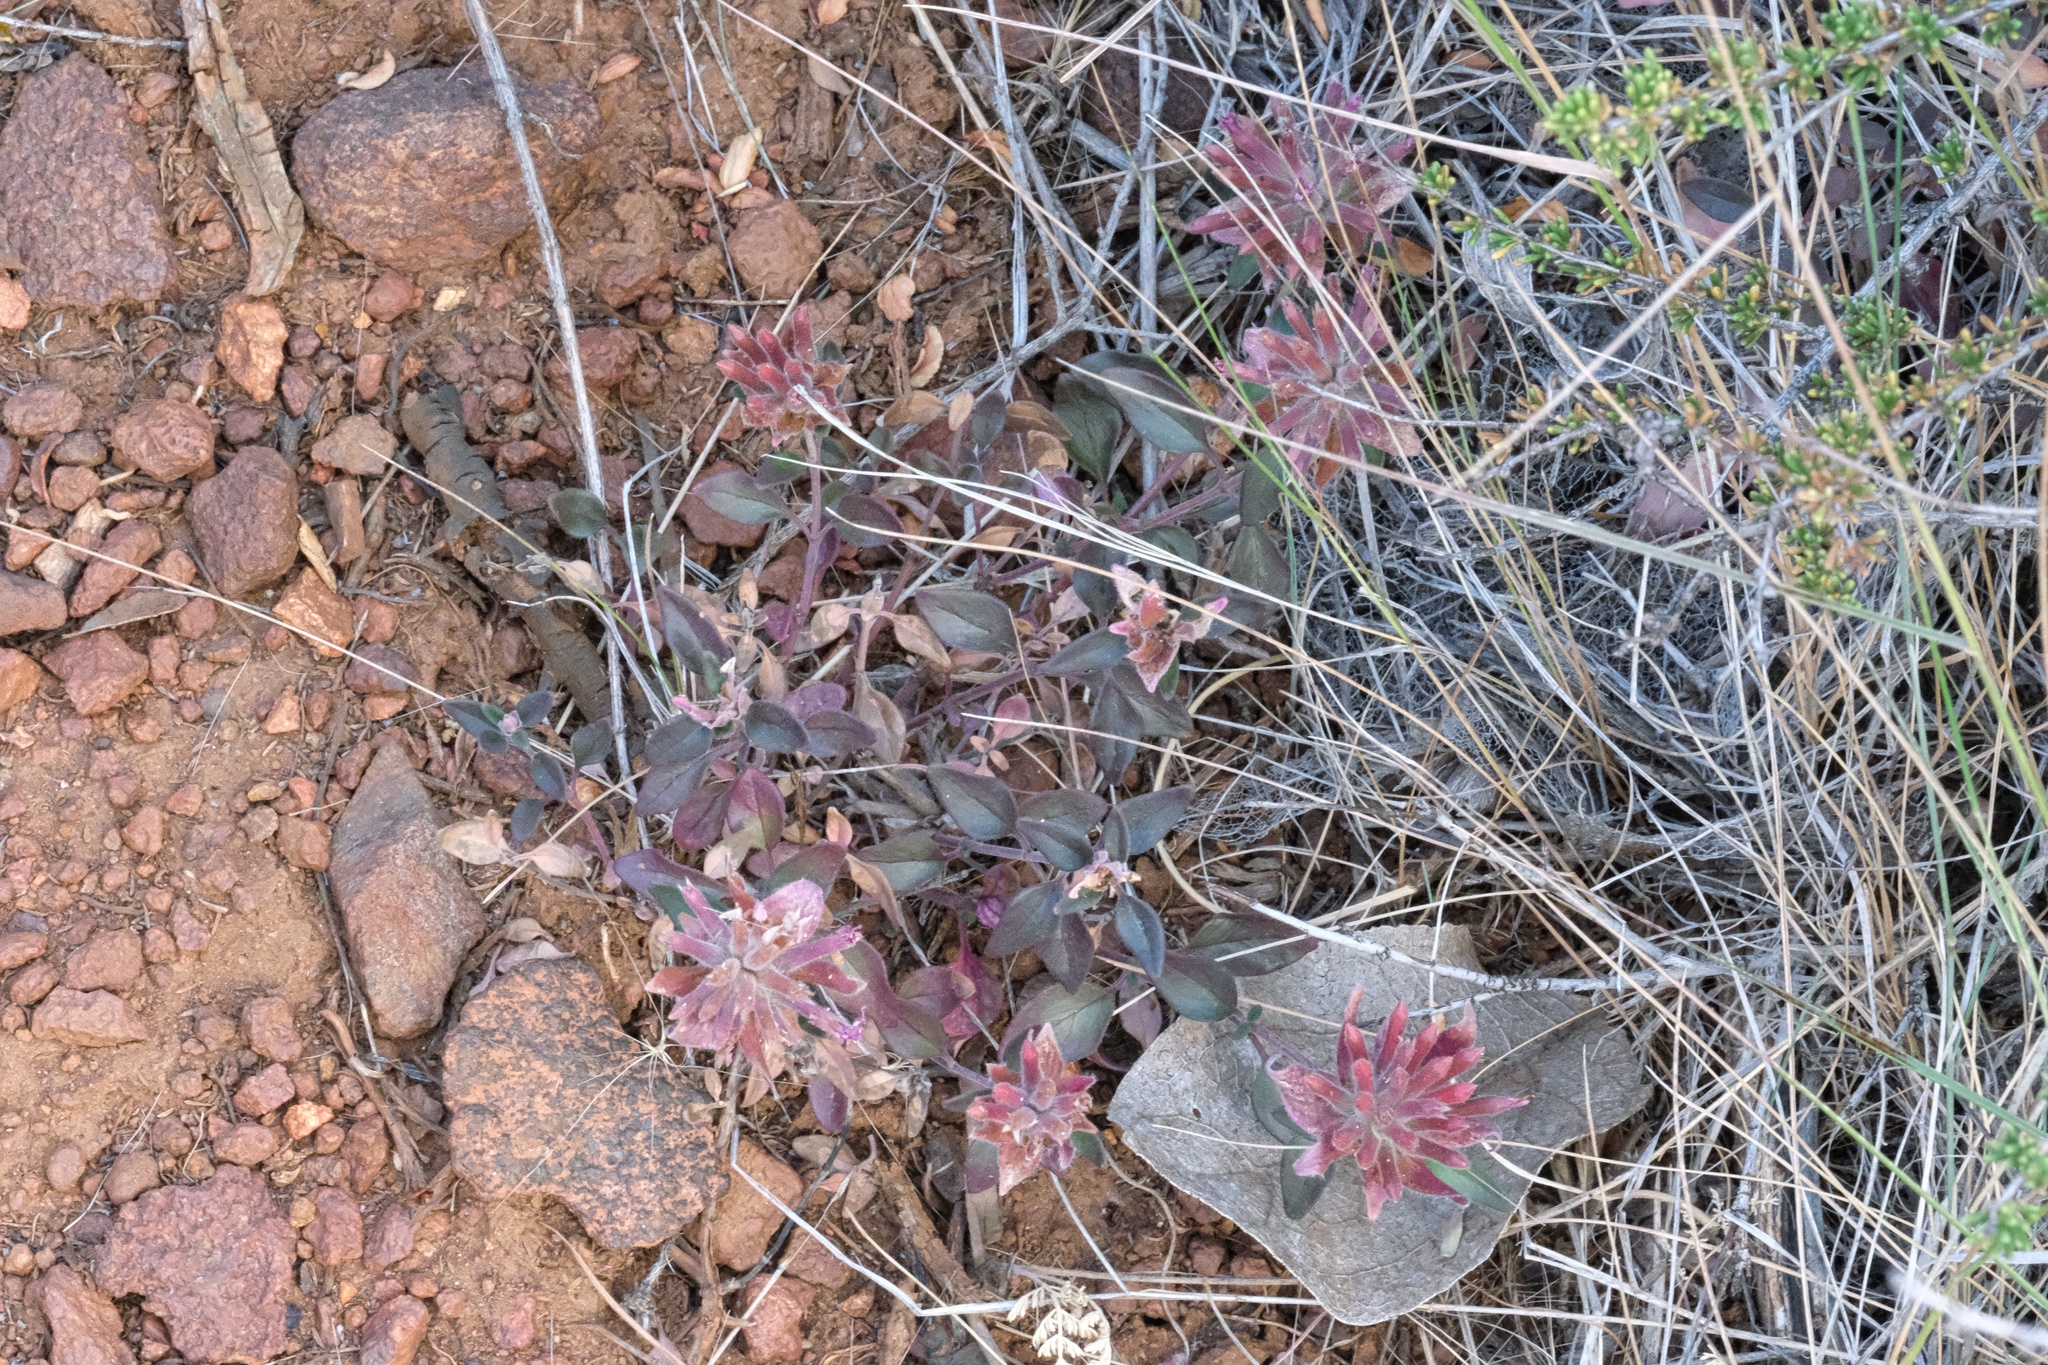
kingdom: Plantae
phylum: Tracheophyta
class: Magnoliopsida
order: Lamiales
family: Lamiaceae
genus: Monardella
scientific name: Monardella macrantha
